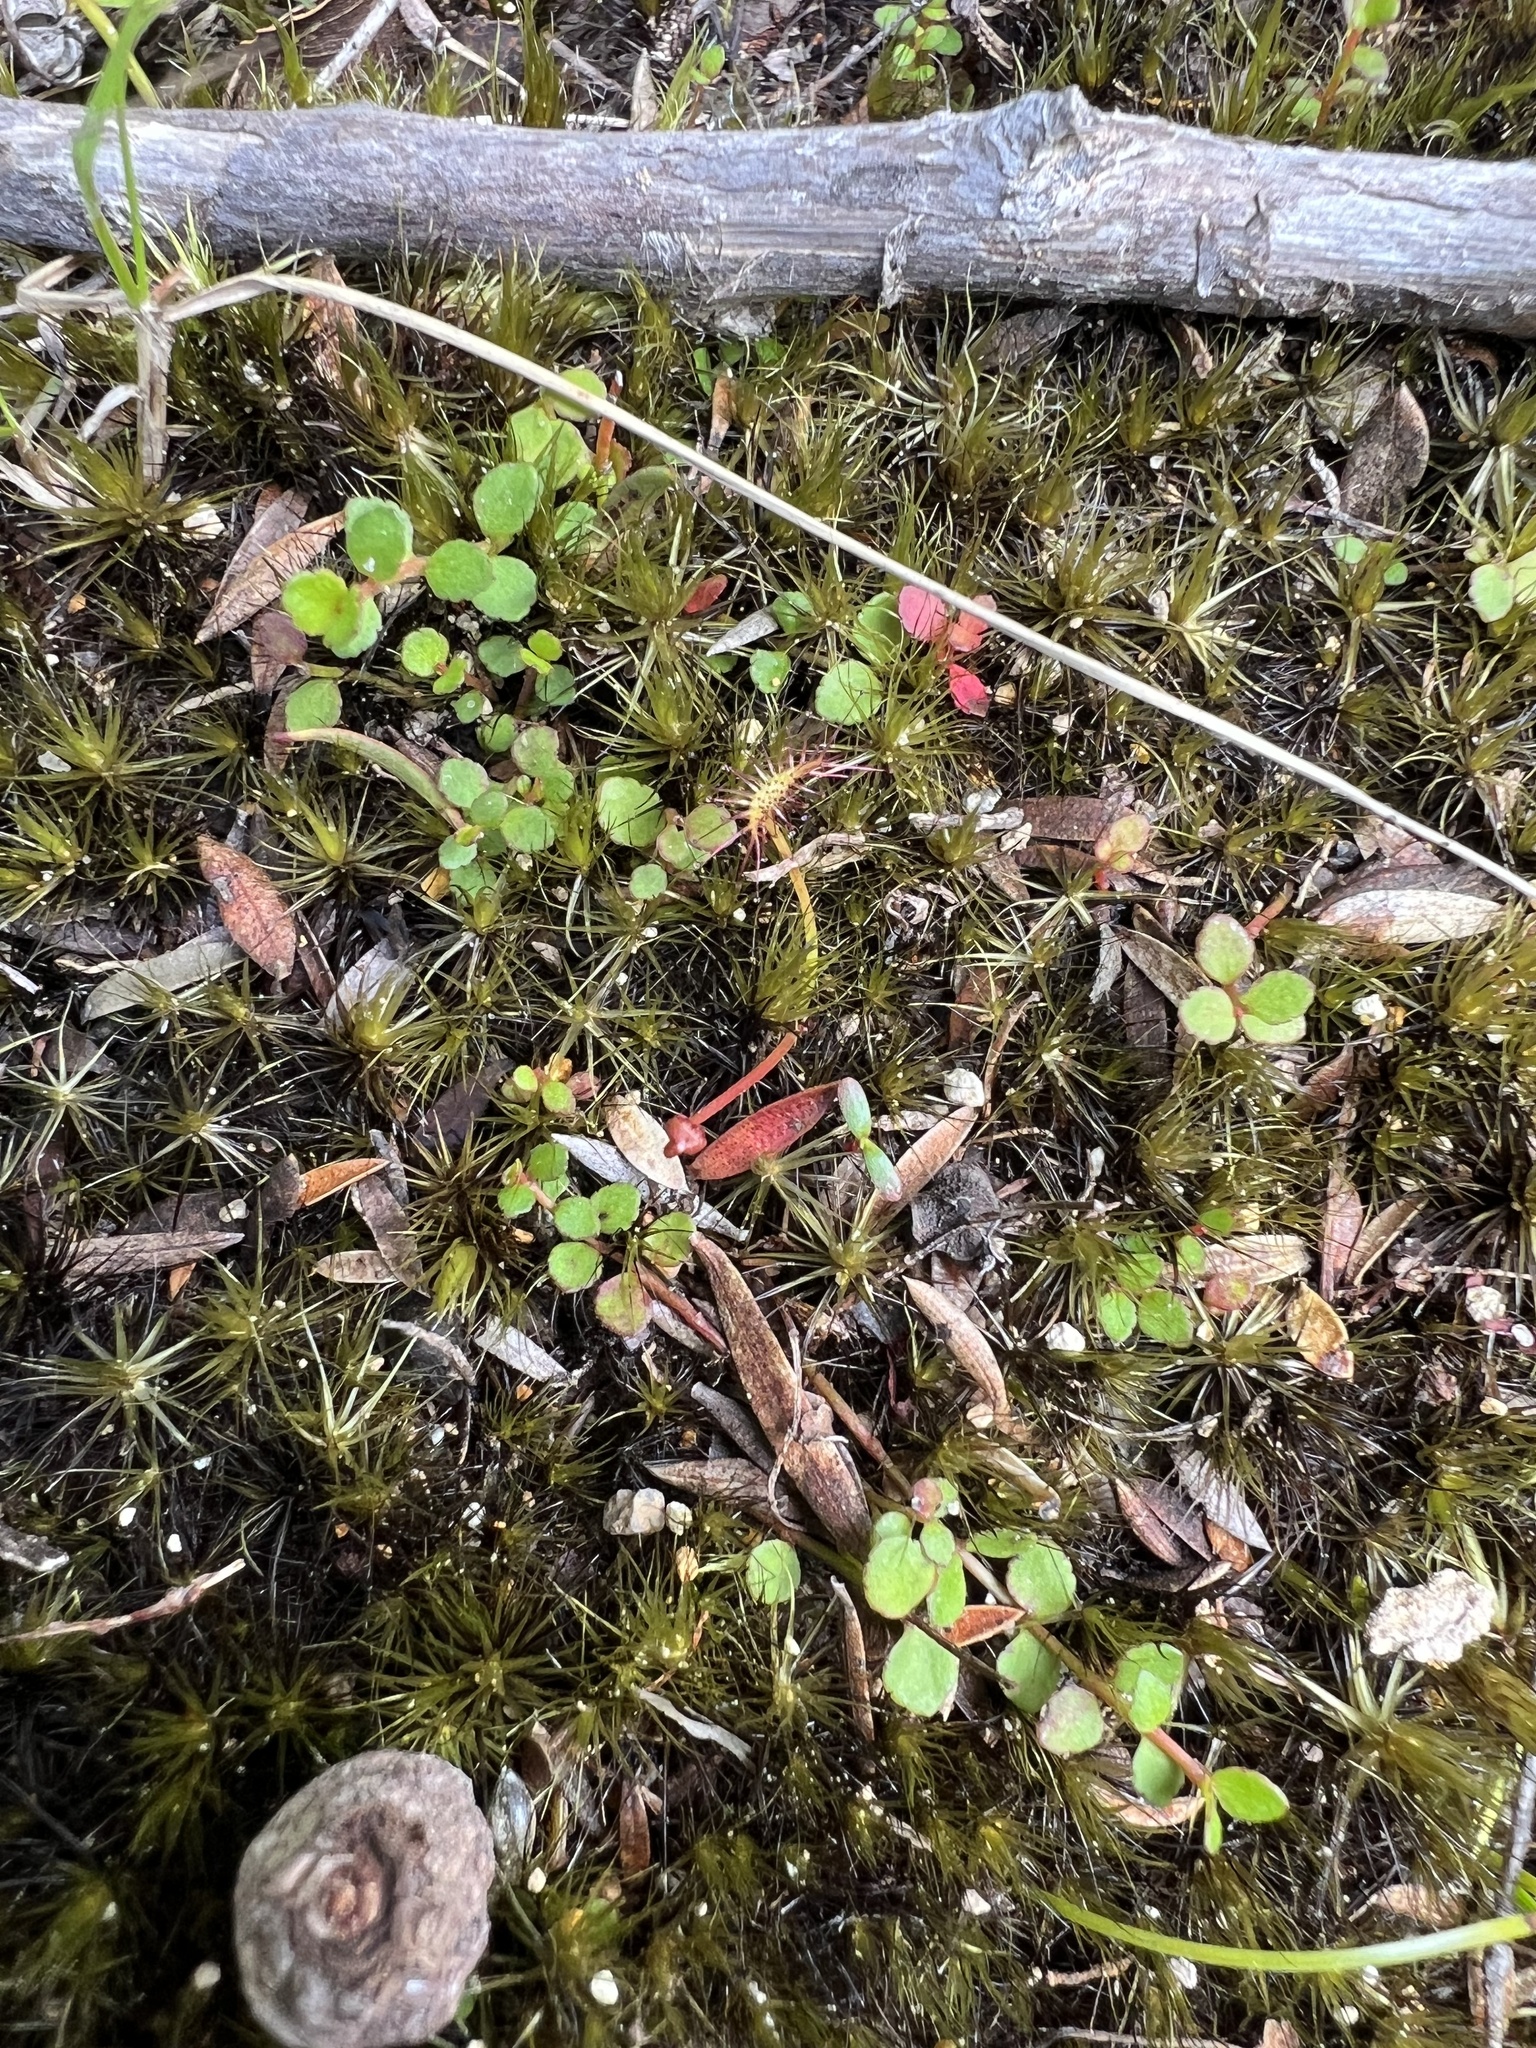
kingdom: Plantae
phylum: Tracheophyta
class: Magnoliopsida
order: Saxifragales
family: Haloragaceae
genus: Gonocarpus
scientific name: Gonocarpus micranthus
